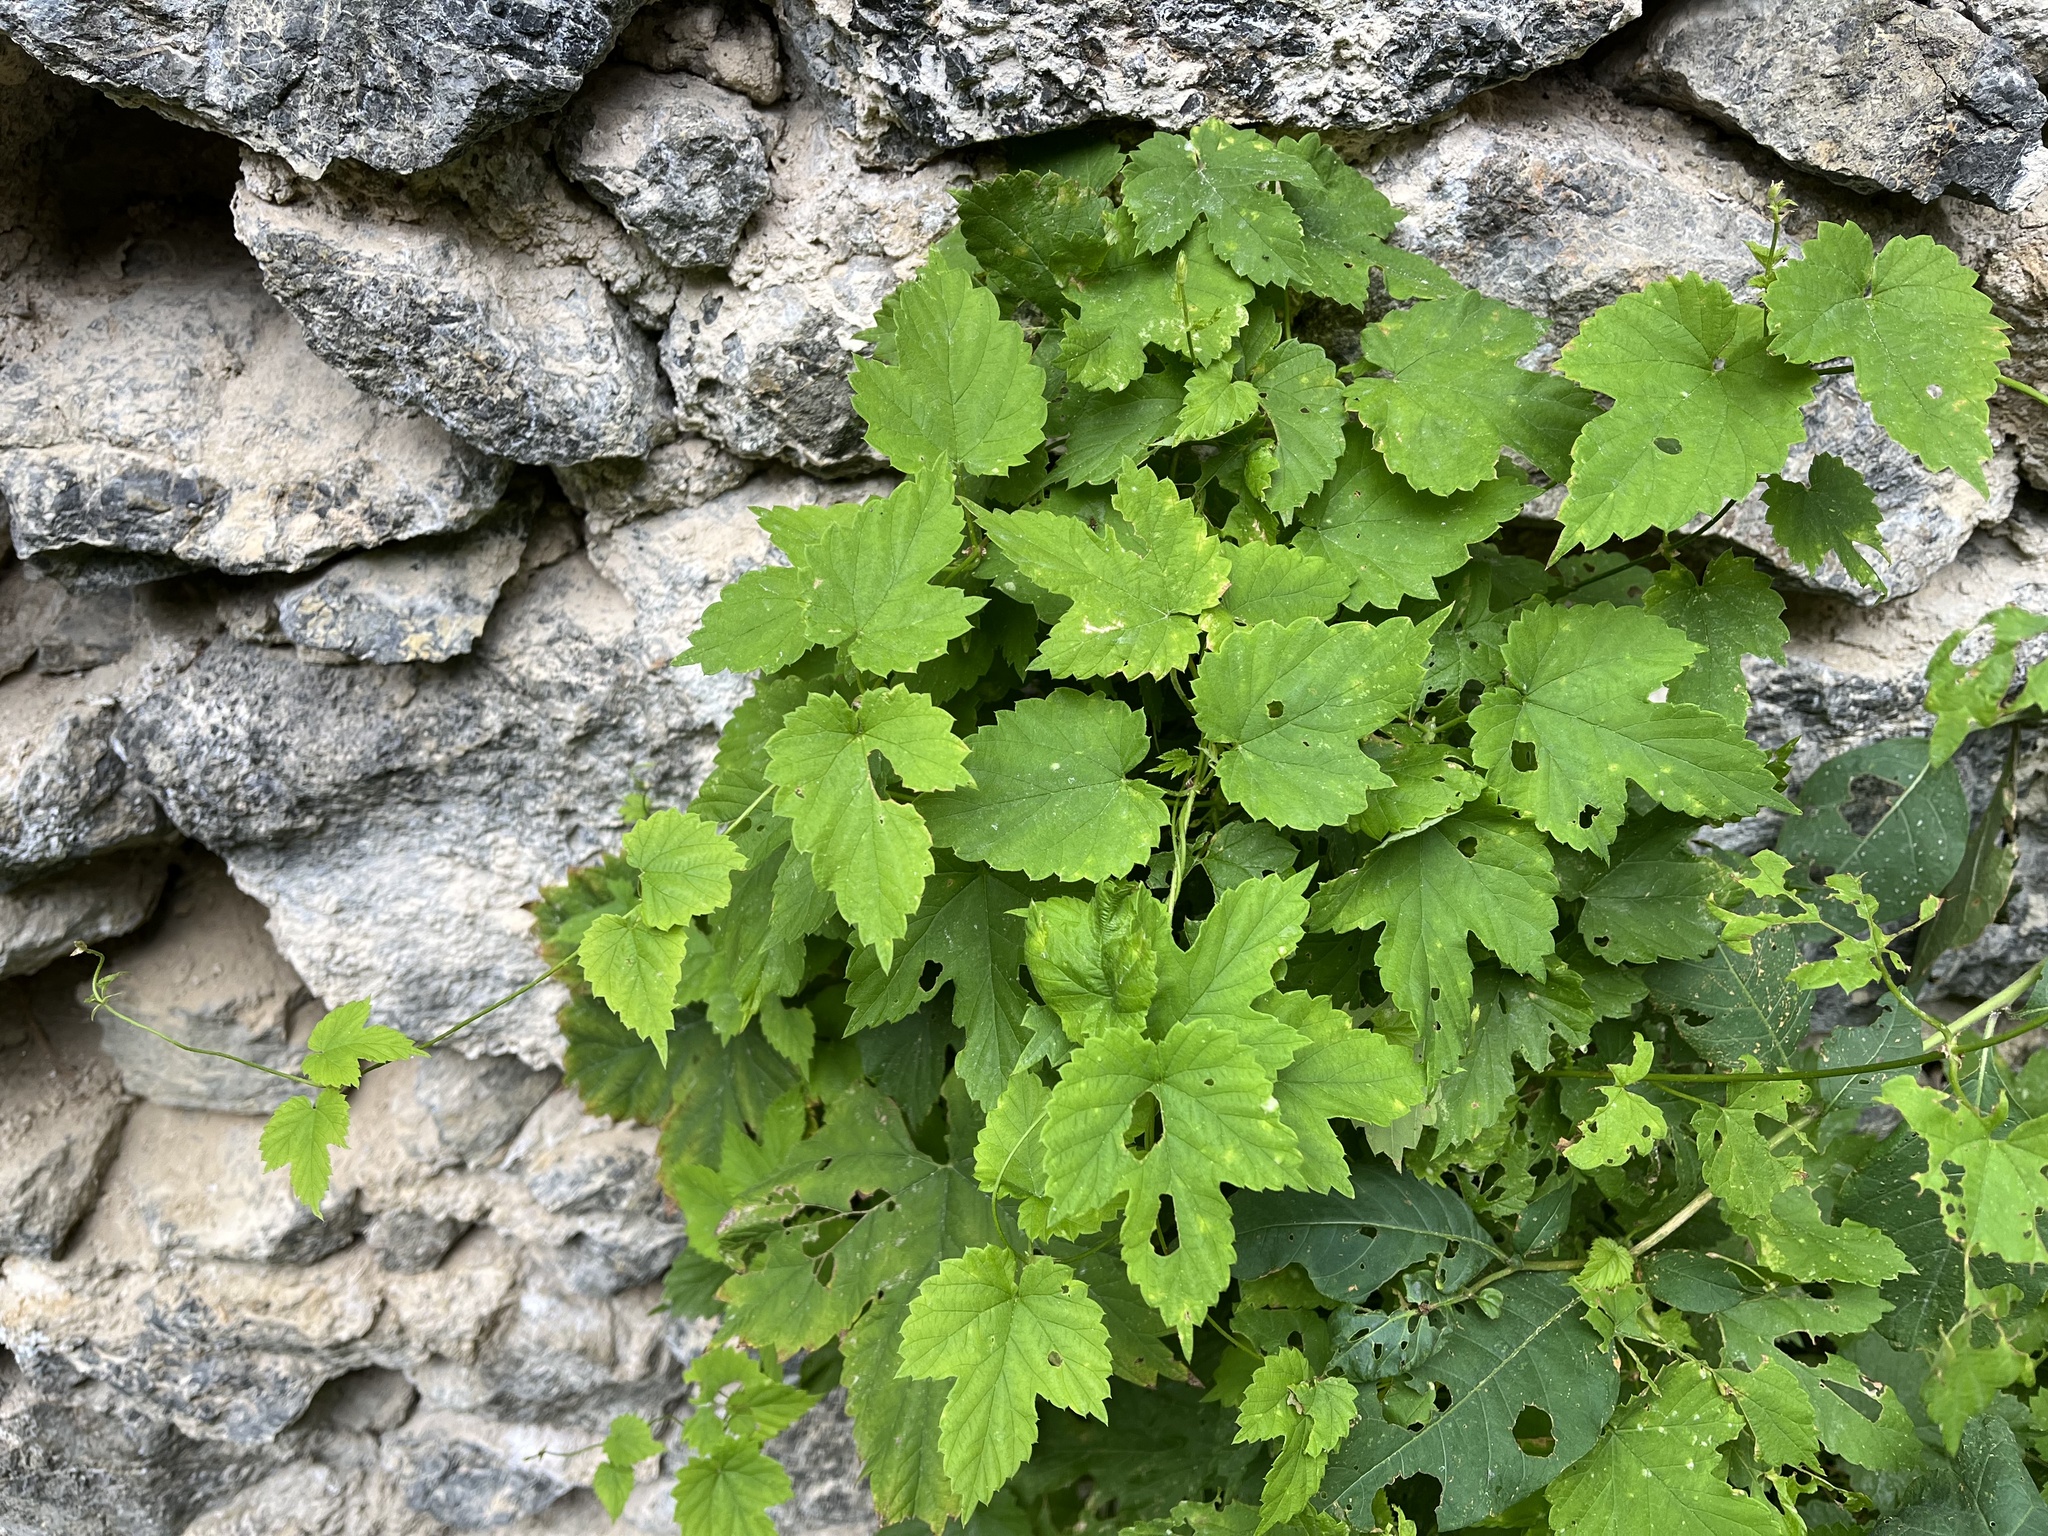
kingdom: Plantae
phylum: Tracheophyta
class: Magnoliopsida
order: Rosales
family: Cannabaceae
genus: Humulus
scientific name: Humulus lupulus
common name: Hop
